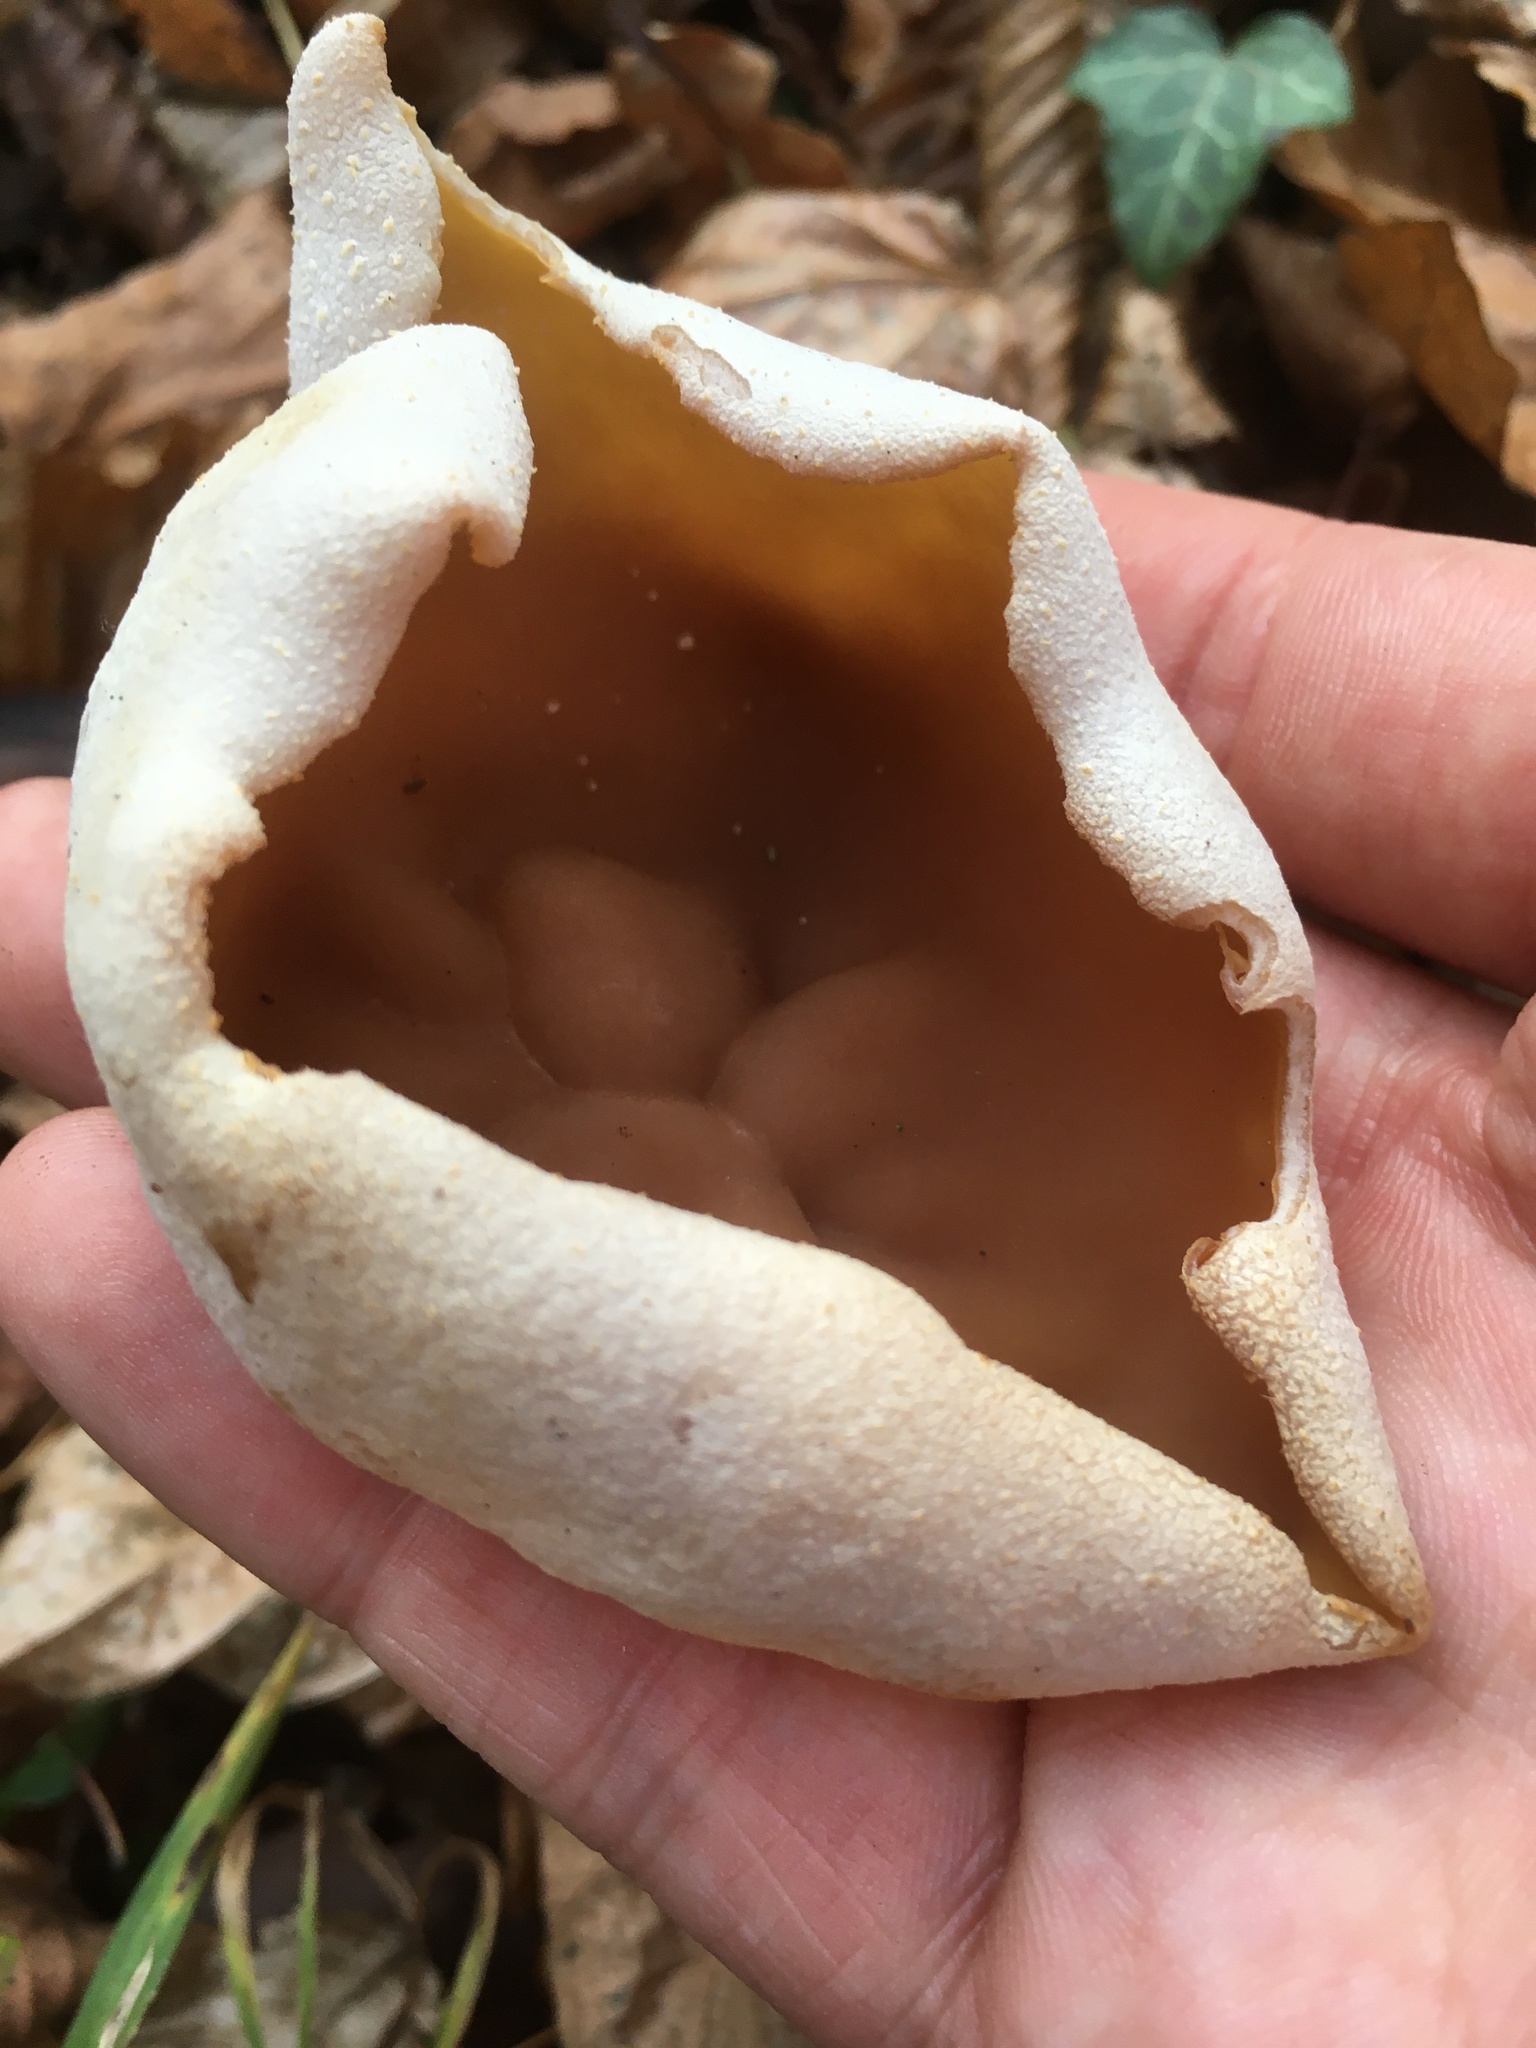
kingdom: Fungi
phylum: Ascomycota
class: Pezizomycetes
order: Pezizales
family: Pezizaceae
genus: Peziza
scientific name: Peziza arvernensis
